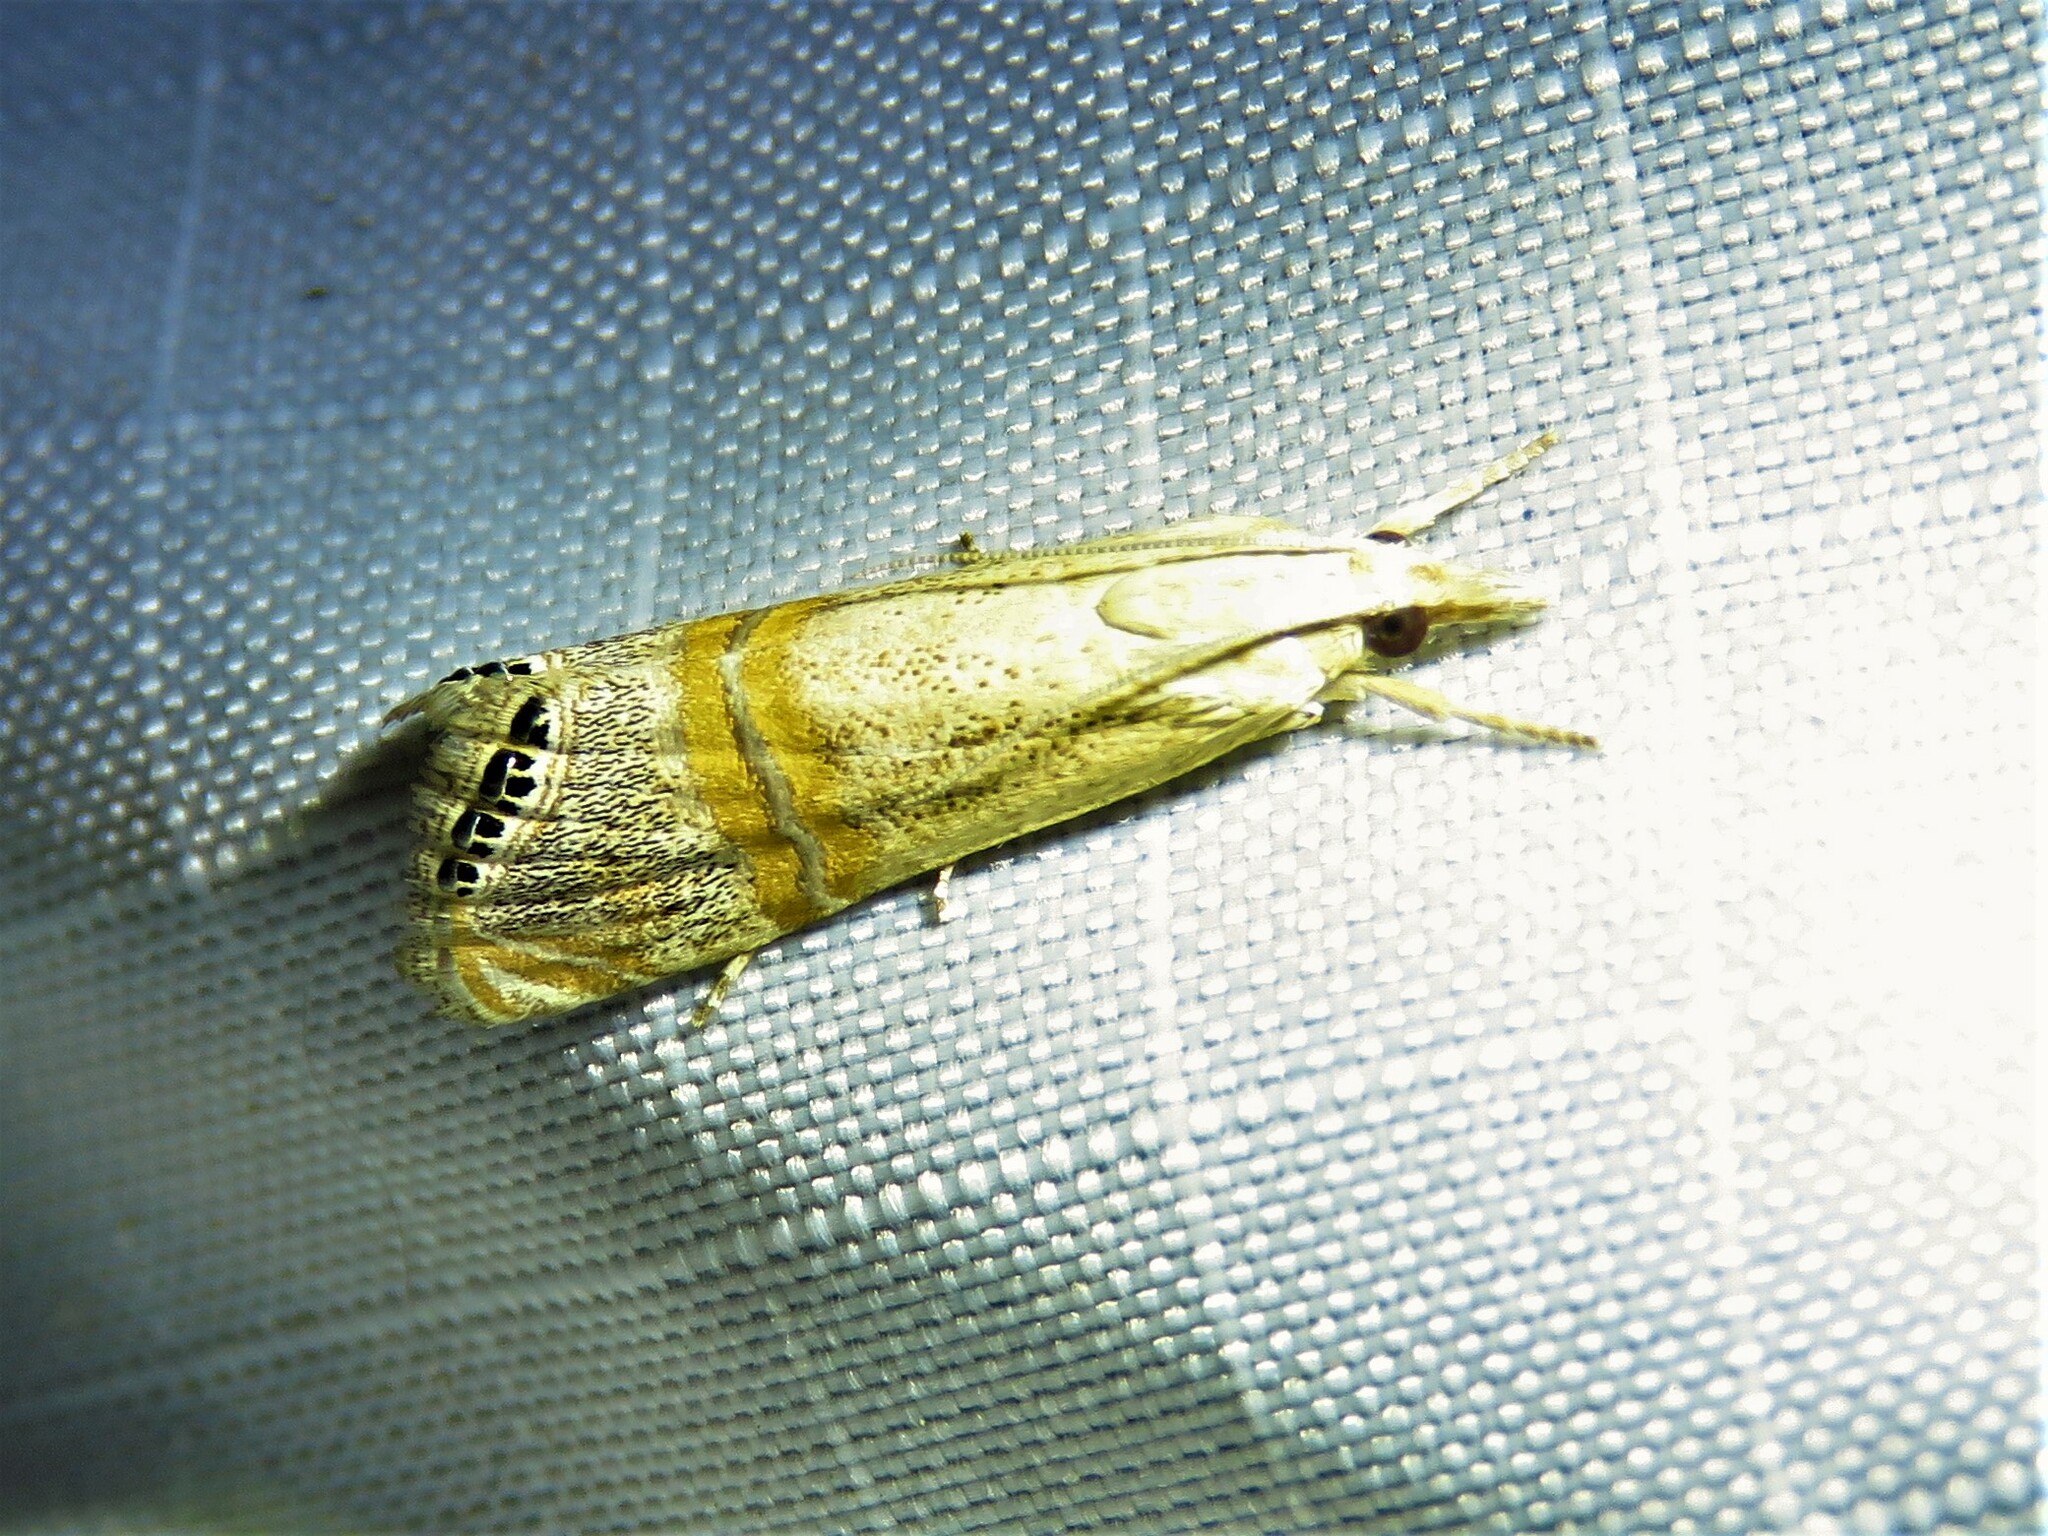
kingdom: Animalia
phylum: Arthropoda
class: Insecta
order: Lepidoptera
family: Crambidae
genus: Euchromius
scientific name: Euchromius ocellea
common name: Necklace veneer moth
